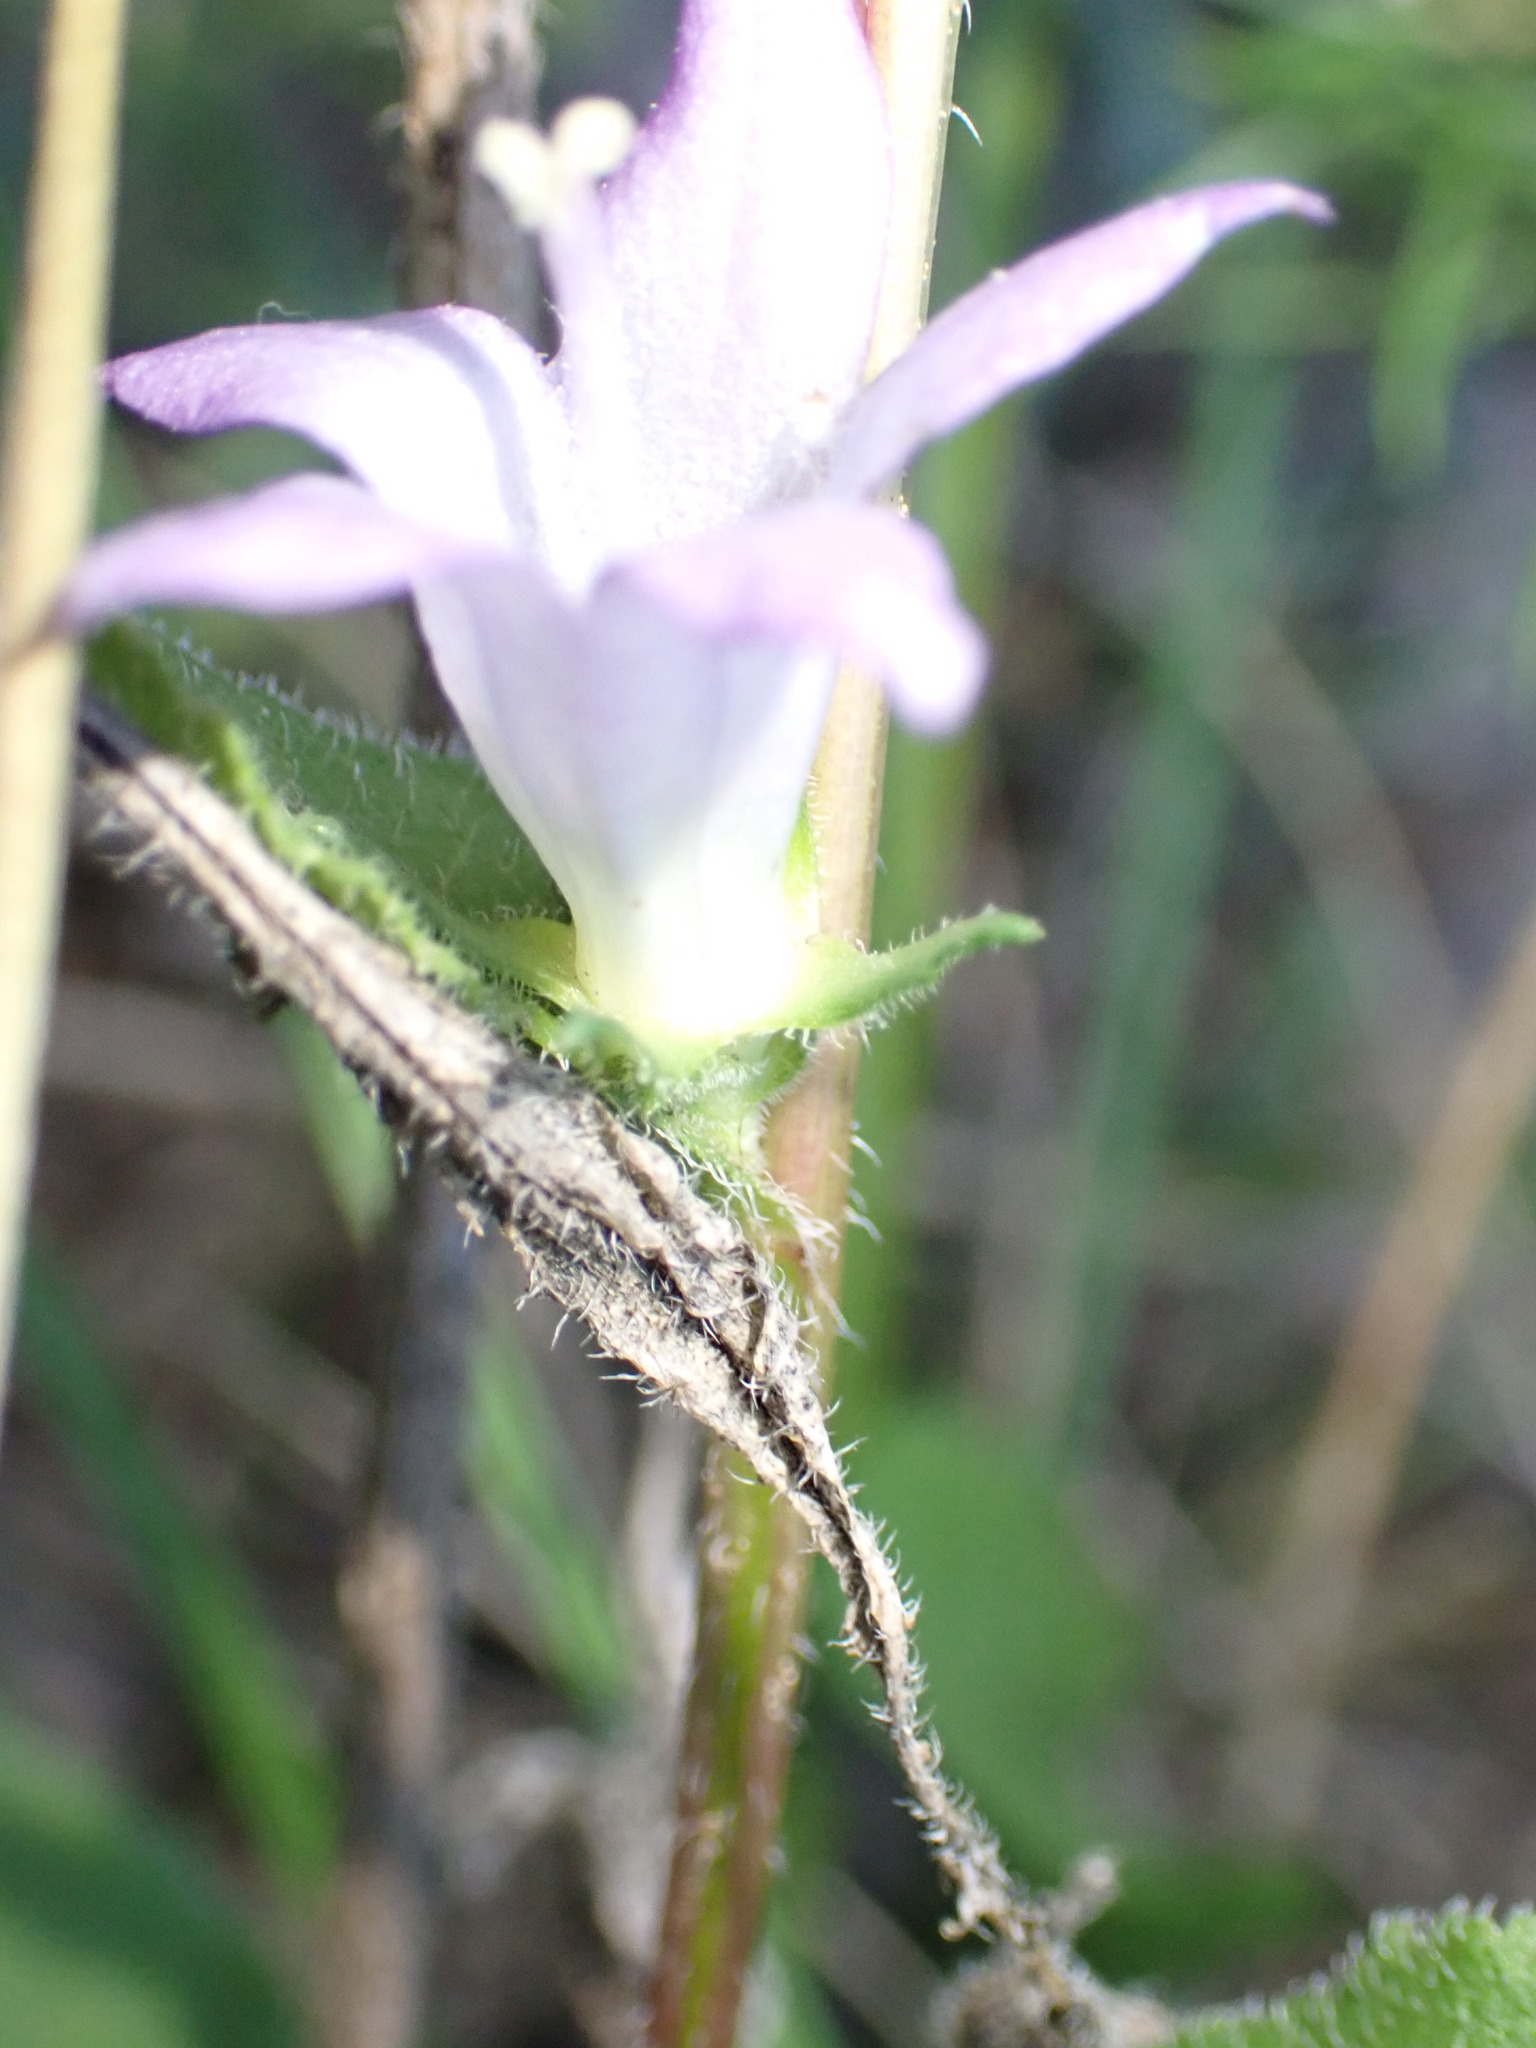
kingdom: Plantae
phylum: Tracheophyta
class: Magnoliopsida
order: Asterales
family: Campanulaceae
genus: Campanula
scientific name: Campanula trachelium
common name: Nettle-leaved bellflower
